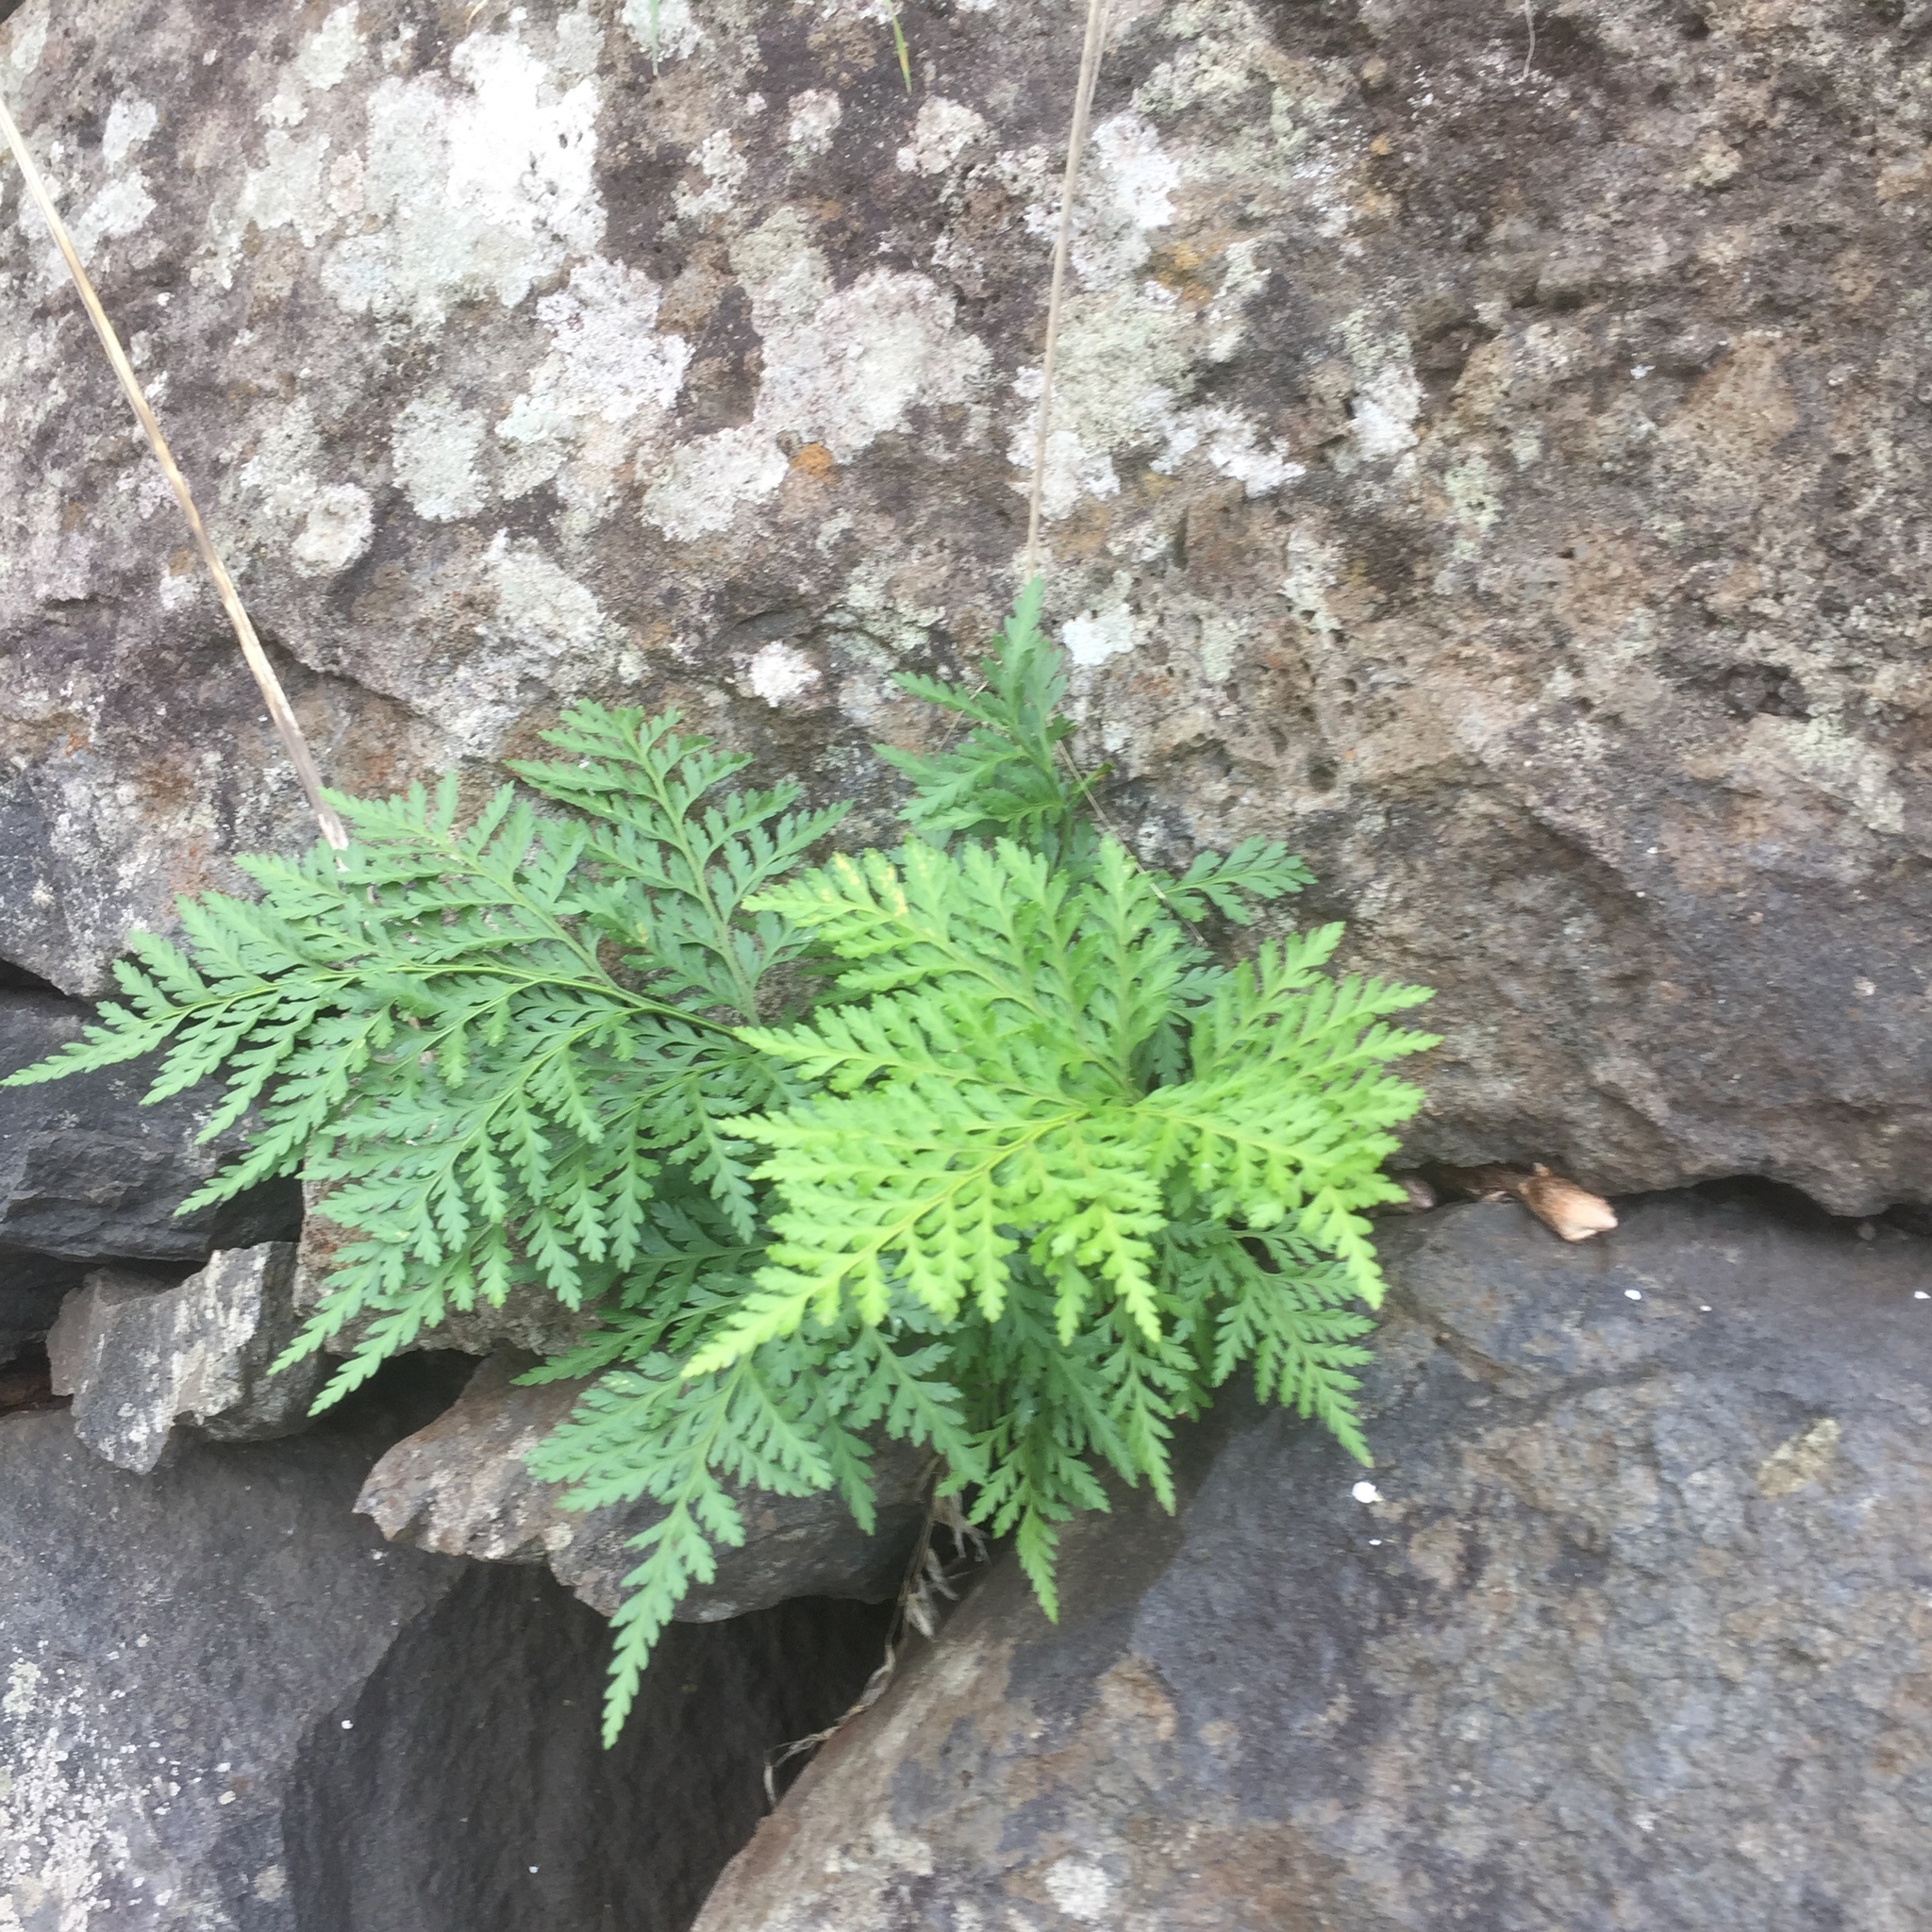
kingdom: Plantae
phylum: Tracheophyta
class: Polypodiopsida
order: Polypodiales
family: Davalliaceae
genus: Davallia
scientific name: Davallia canariensis
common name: Hare's-foot fern
